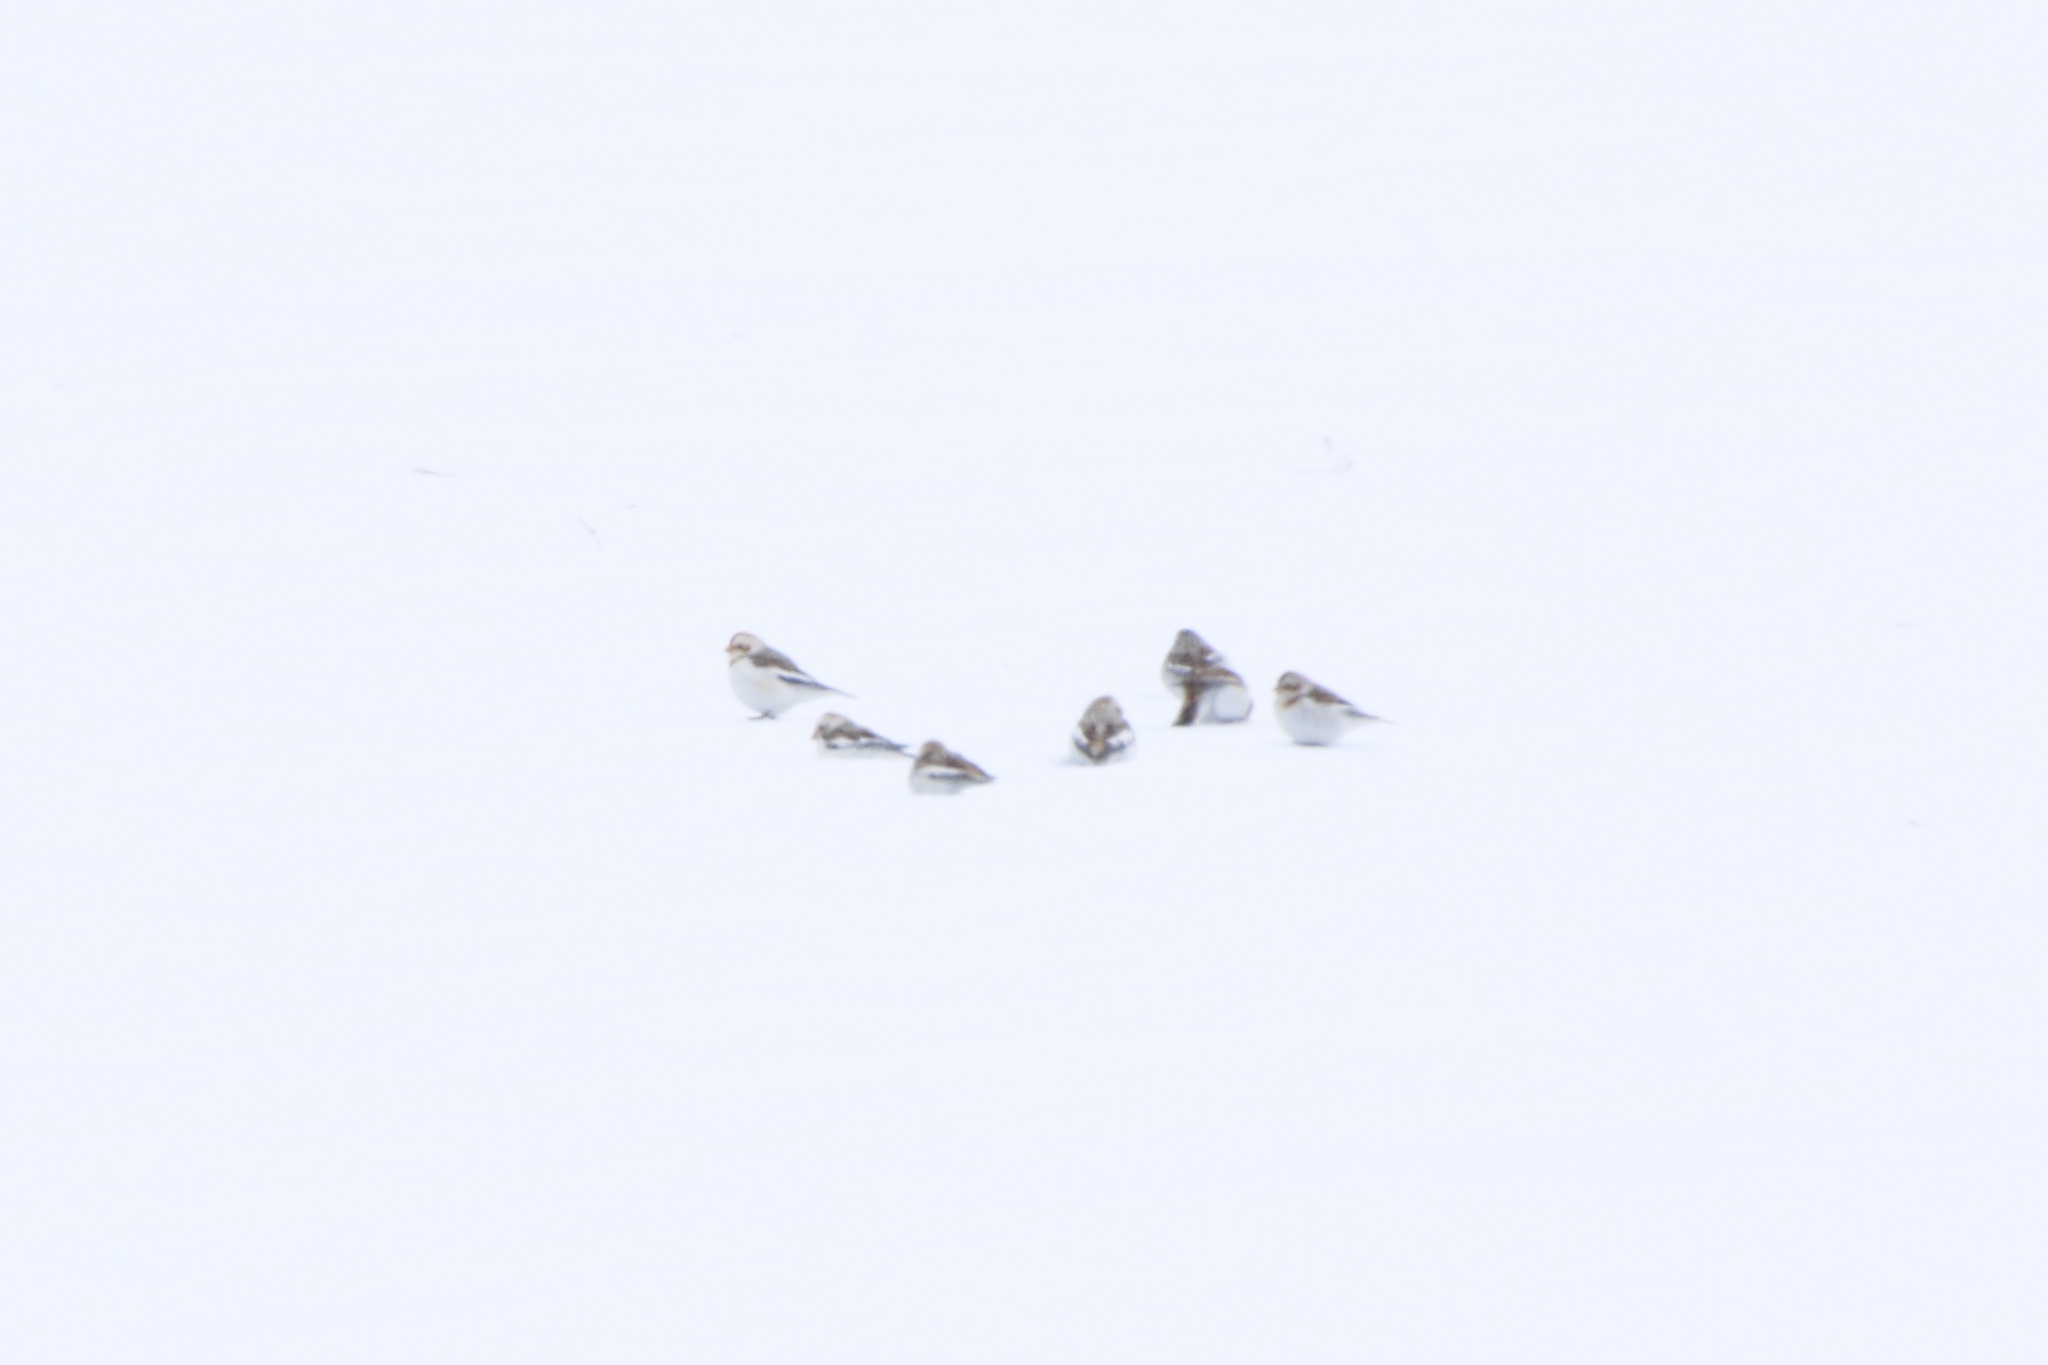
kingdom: Animalia
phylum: Chordata
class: Aves
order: Passeriformes
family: Calcariidae
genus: Plectrophenax
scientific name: Plectrophenax nivalis
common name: Snow bunting
